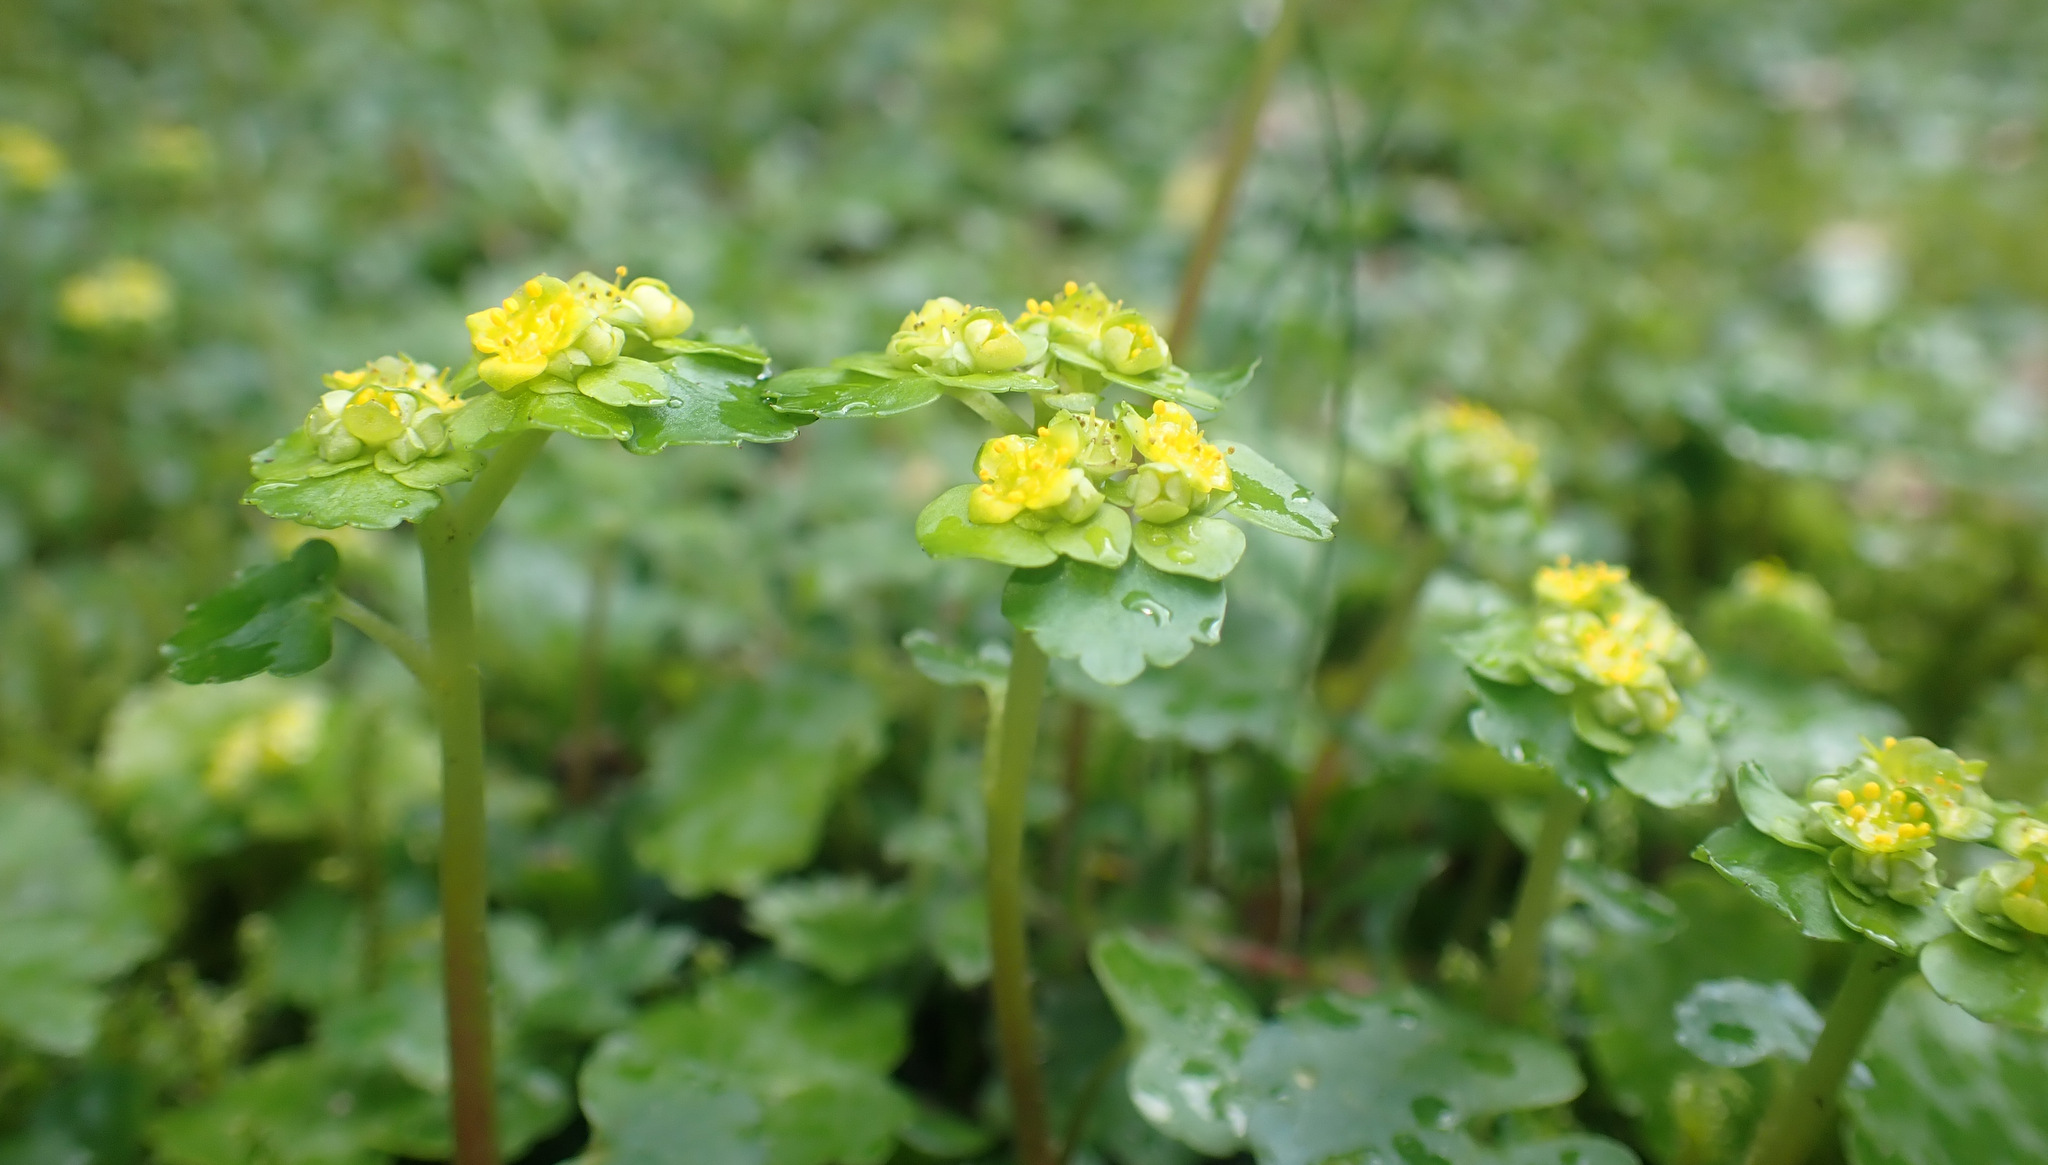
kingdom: Plantae
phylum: Tracheophyta
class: Magnoliopsida
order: Saxifragales
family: Saxifragaceae
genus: Chrysosplenium
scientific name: Chrysosplenium alternifolium
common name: Alternate-leaved golden-saxifrage
